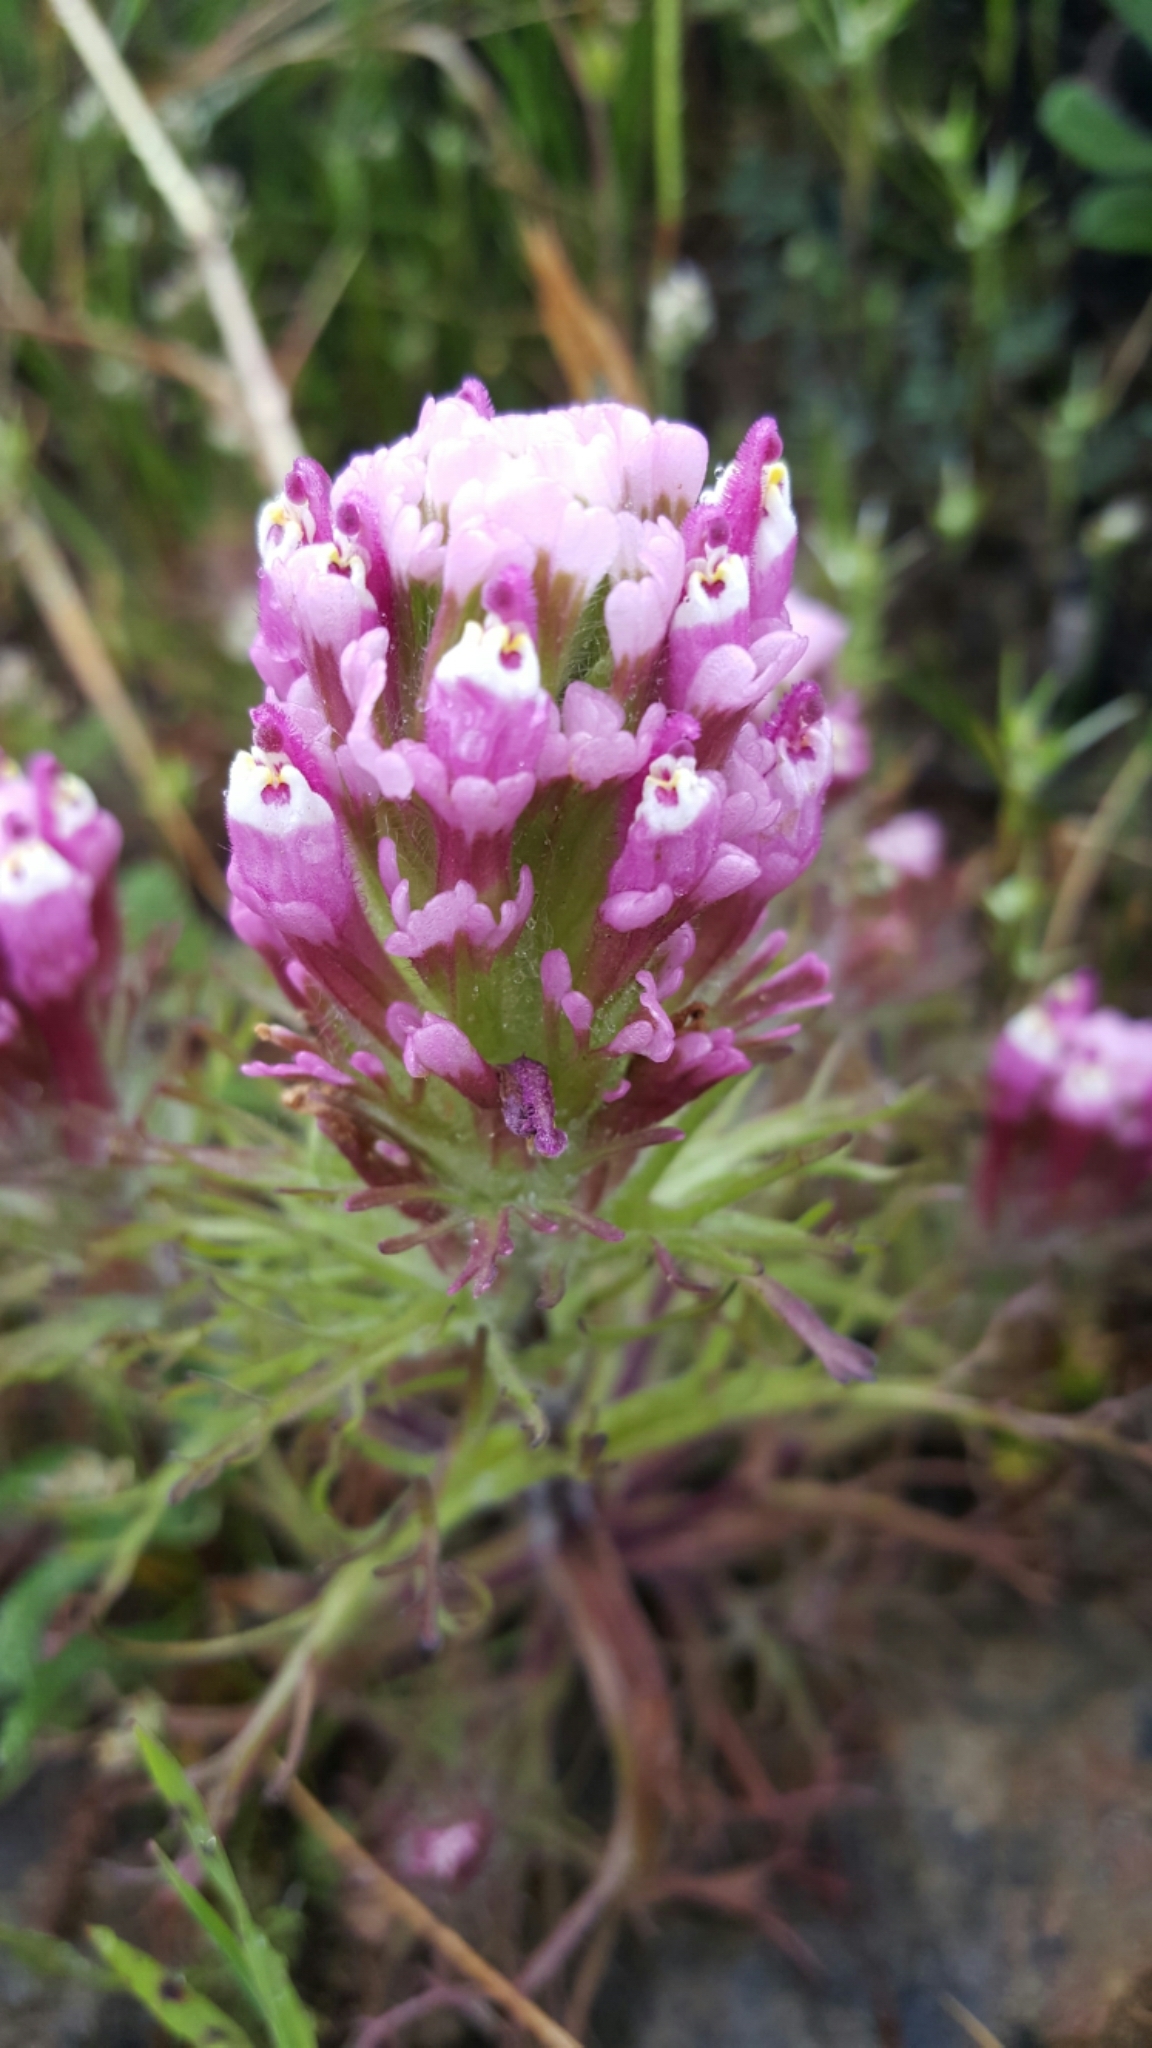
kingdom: Plantae
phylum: Tracheophyta
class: Magnoliopsida
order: Lamiales
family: Orobanchaceae
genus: Castilleja
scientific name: Castilleja exserta
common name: Purple owl-clover
